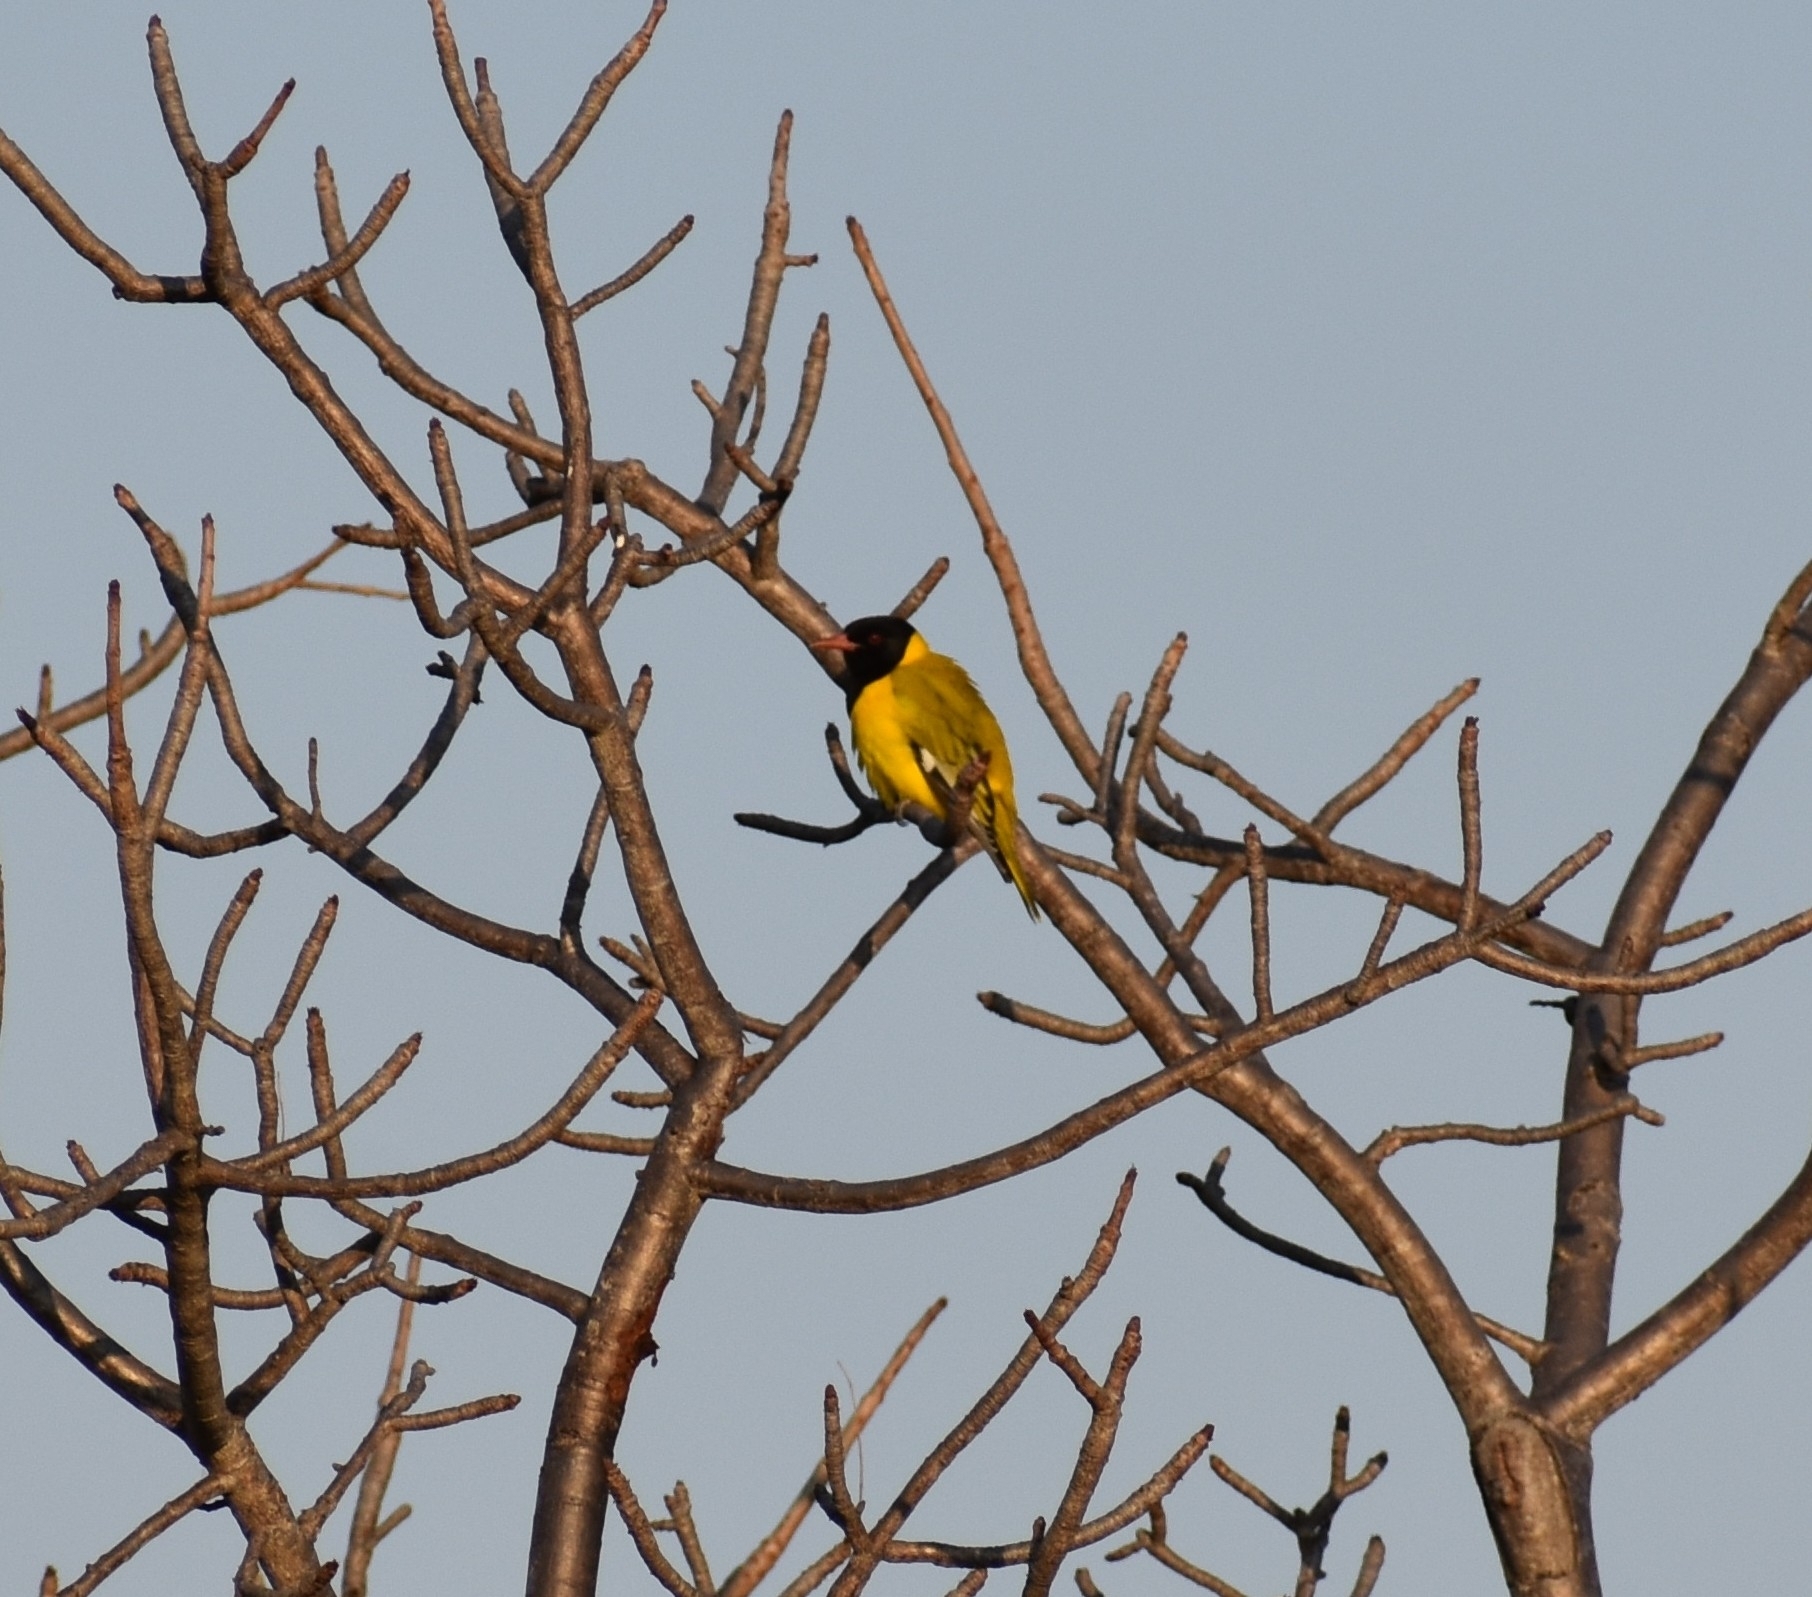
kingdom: Animalia
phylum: Chordata
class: Aves
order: Passeriformes
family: Oriolidae
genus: Oriolus
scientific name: Oriolus larvatus
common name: Black-headed oriole
